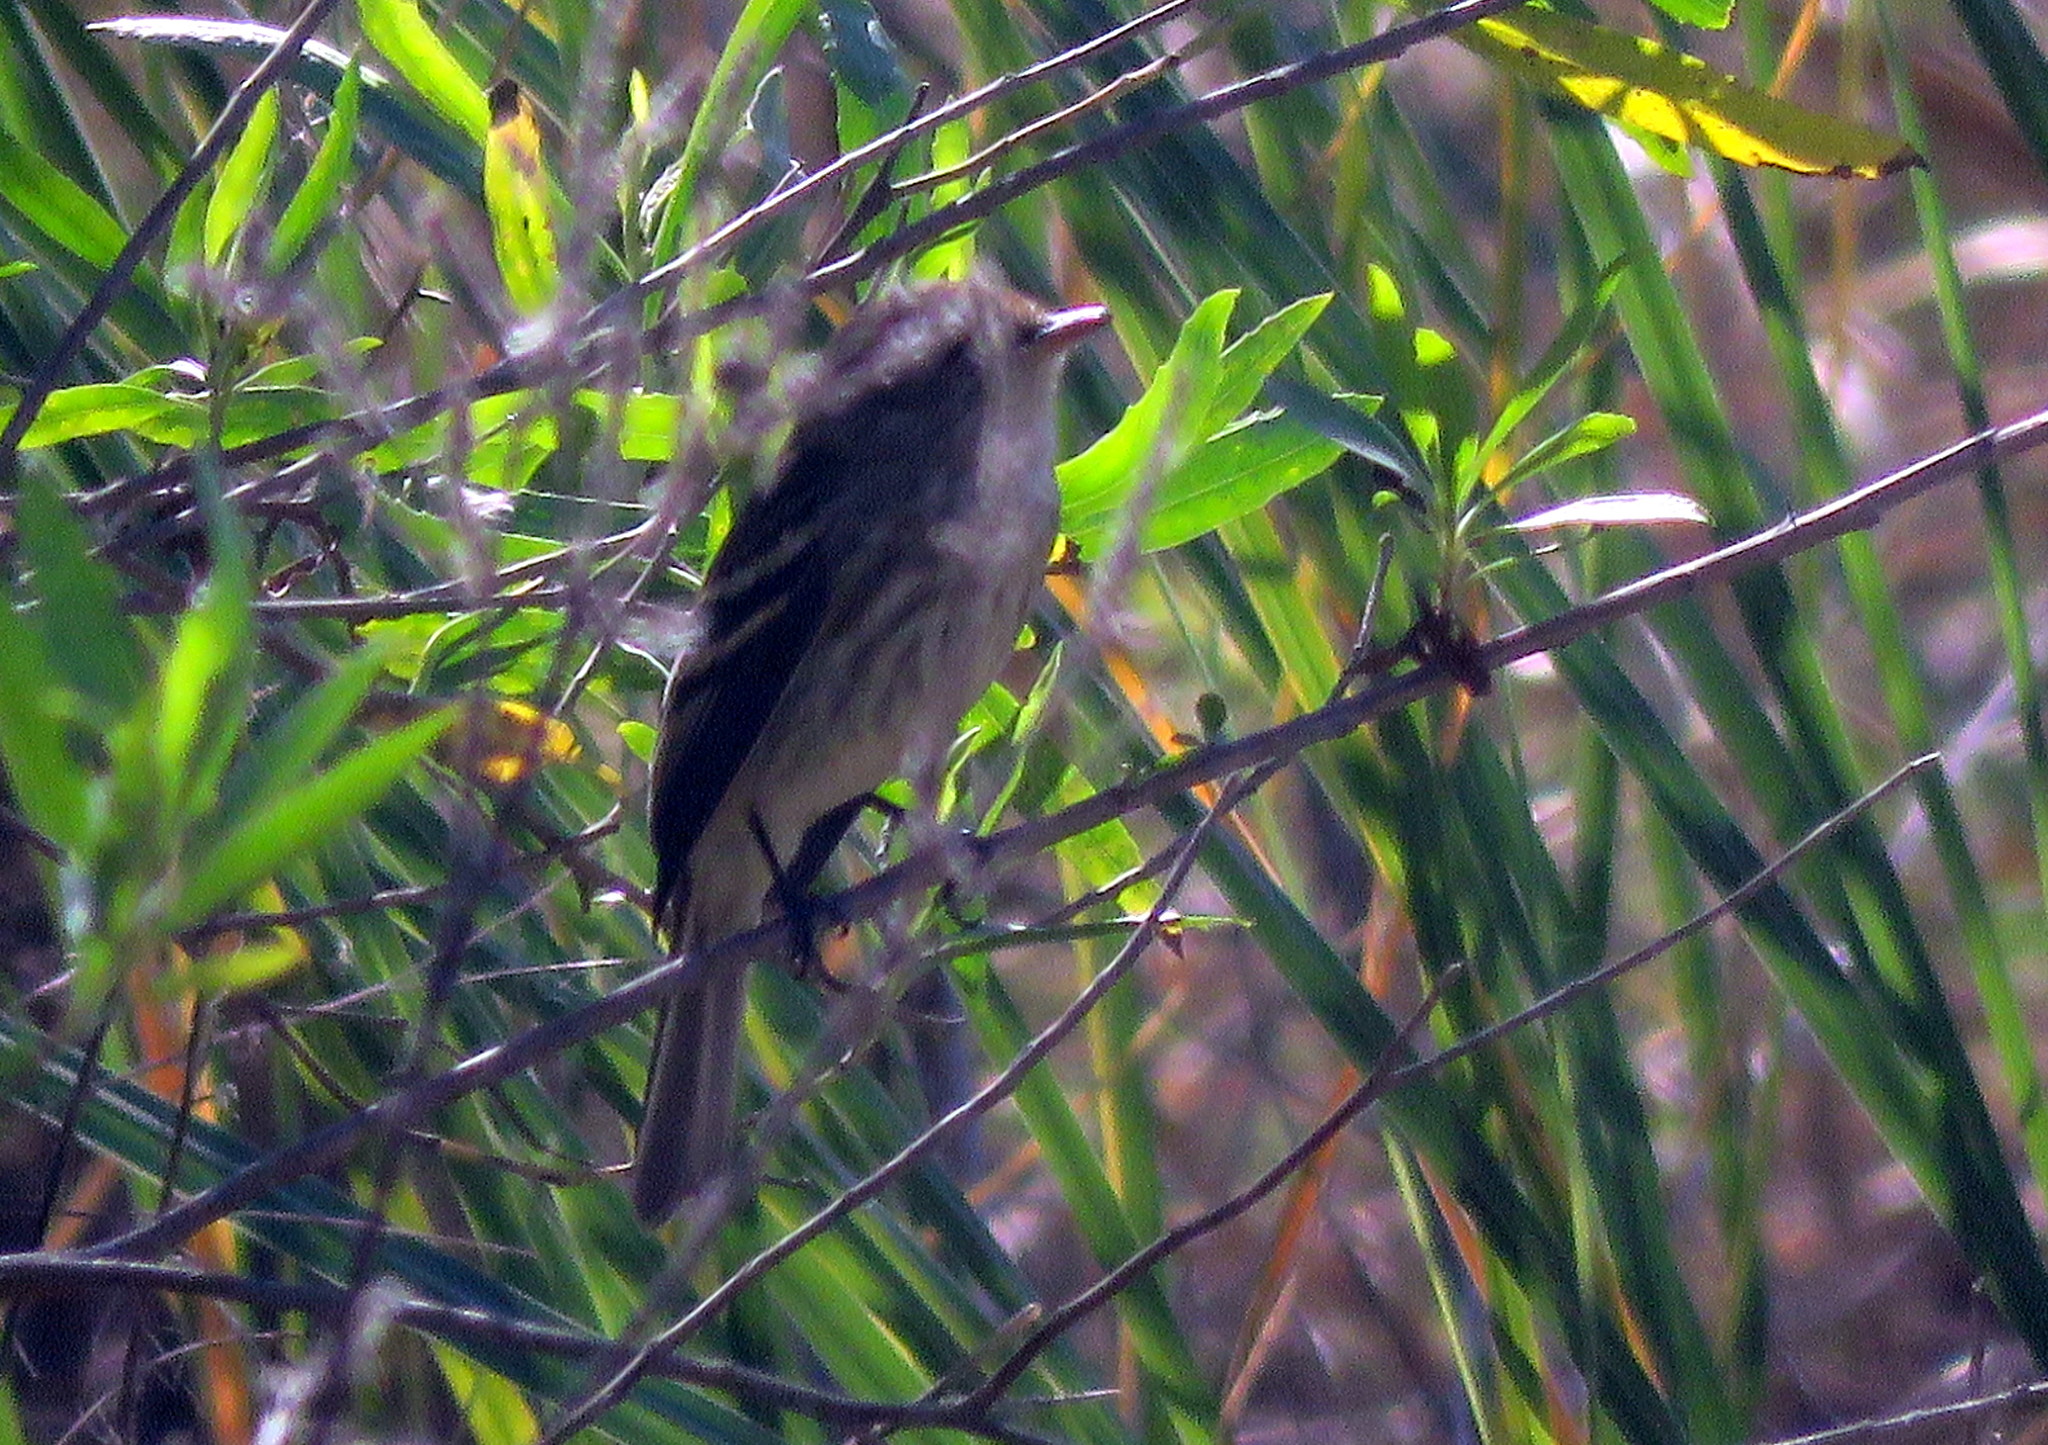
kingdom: Animalia
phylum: Chordata
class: Aves
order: Passeriformes
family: Tyrannidae
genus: Myiophobus
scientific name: Myiophobus fasciatus
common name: Bran-colored flycatcher
